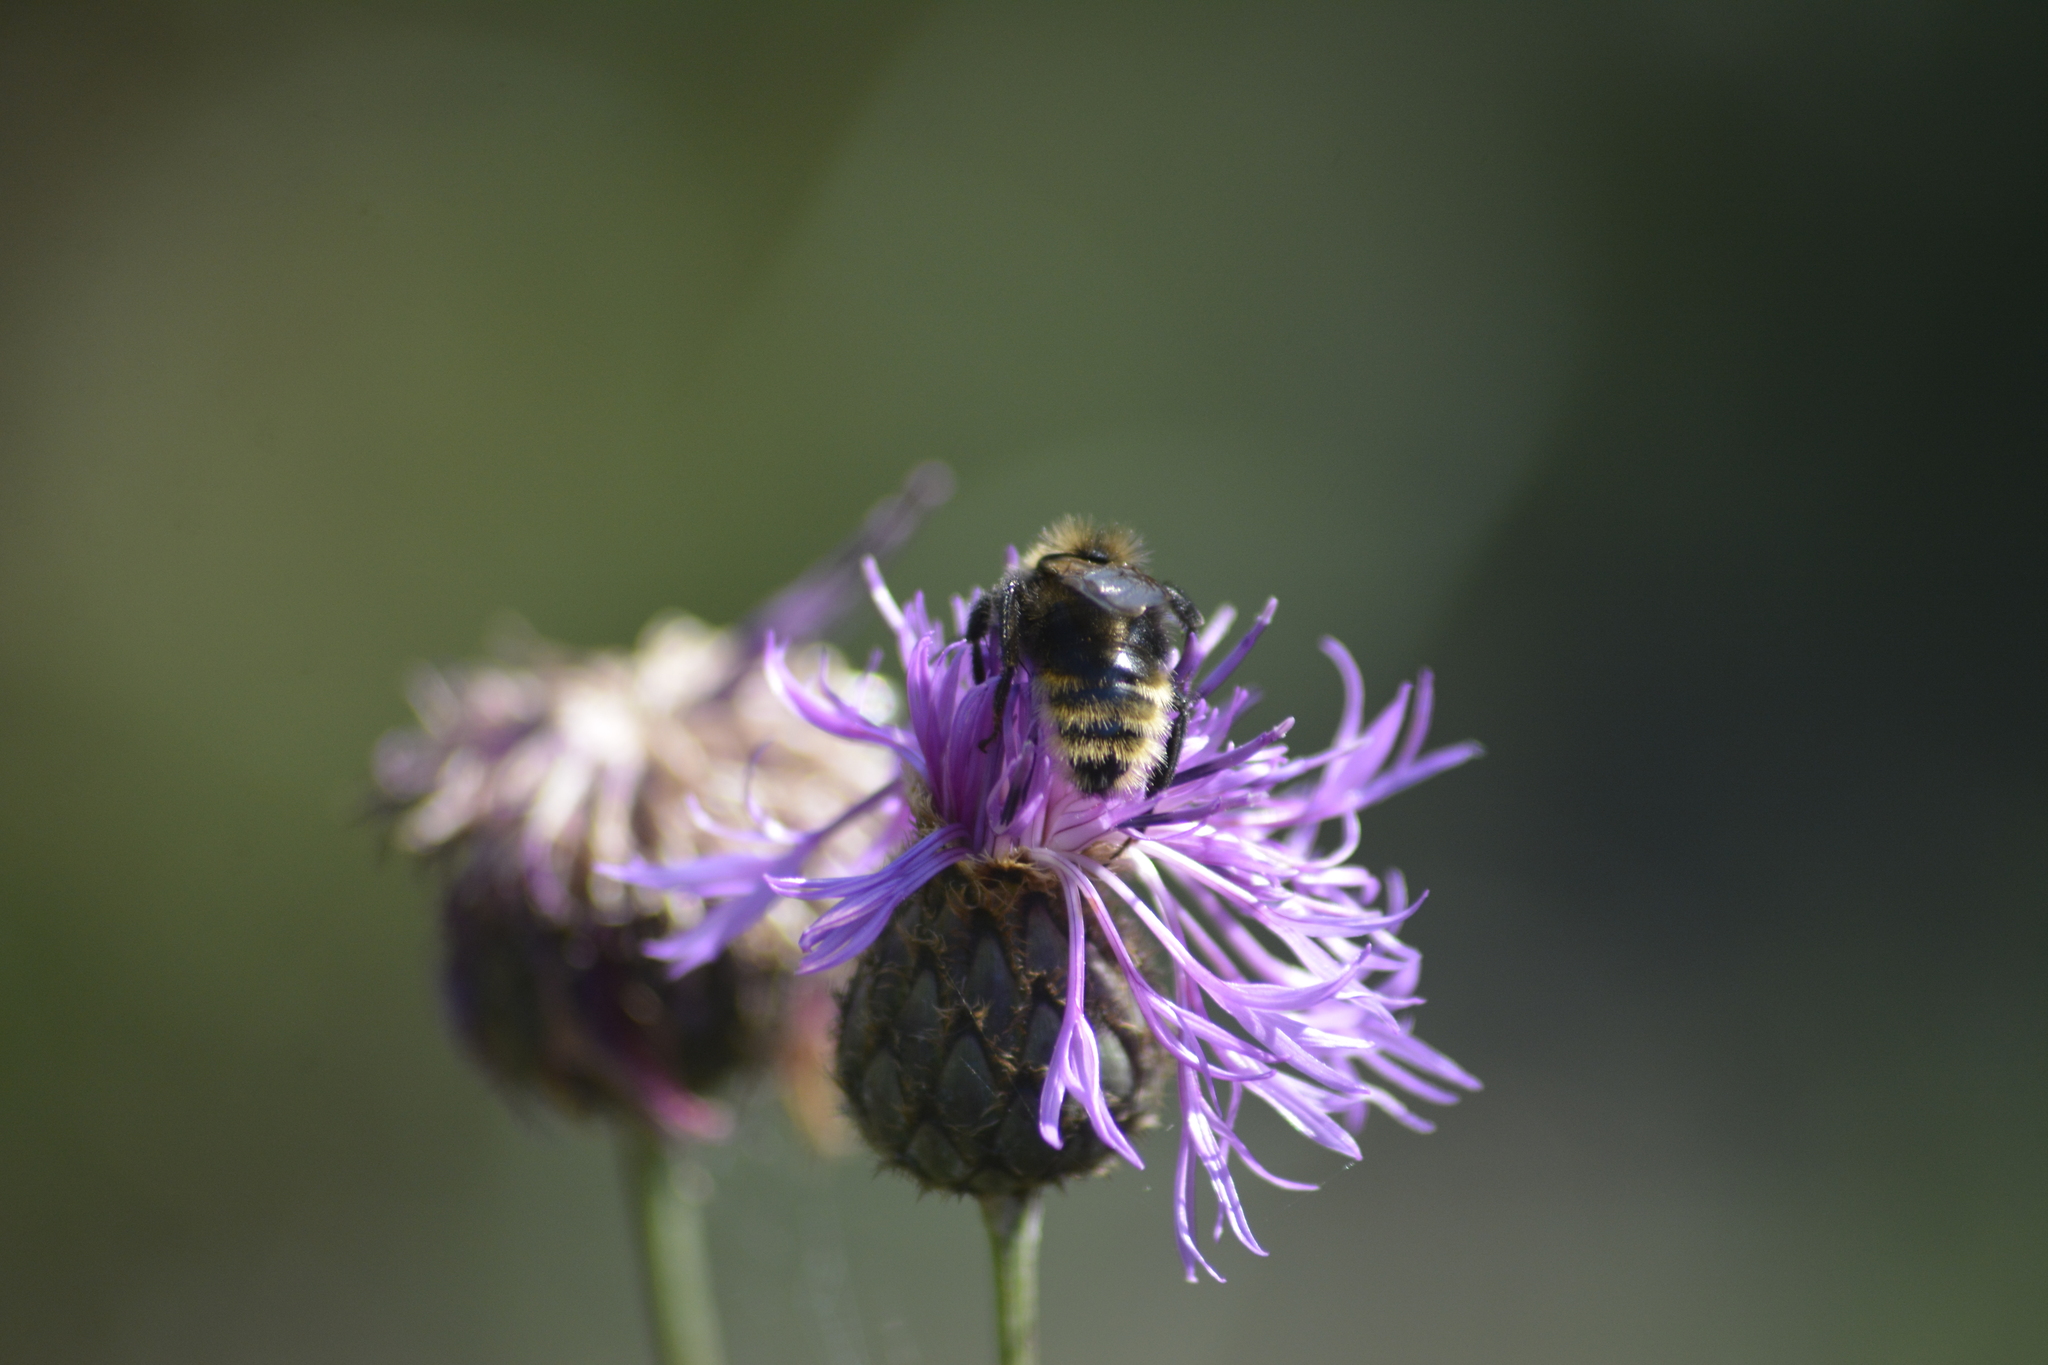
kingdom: Animalia
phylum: Arthropoda
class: Insecta
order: Hymenoptera
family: Apidae
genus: Bombus
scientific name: Bombus campestris
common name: Field cuckoo-bee
